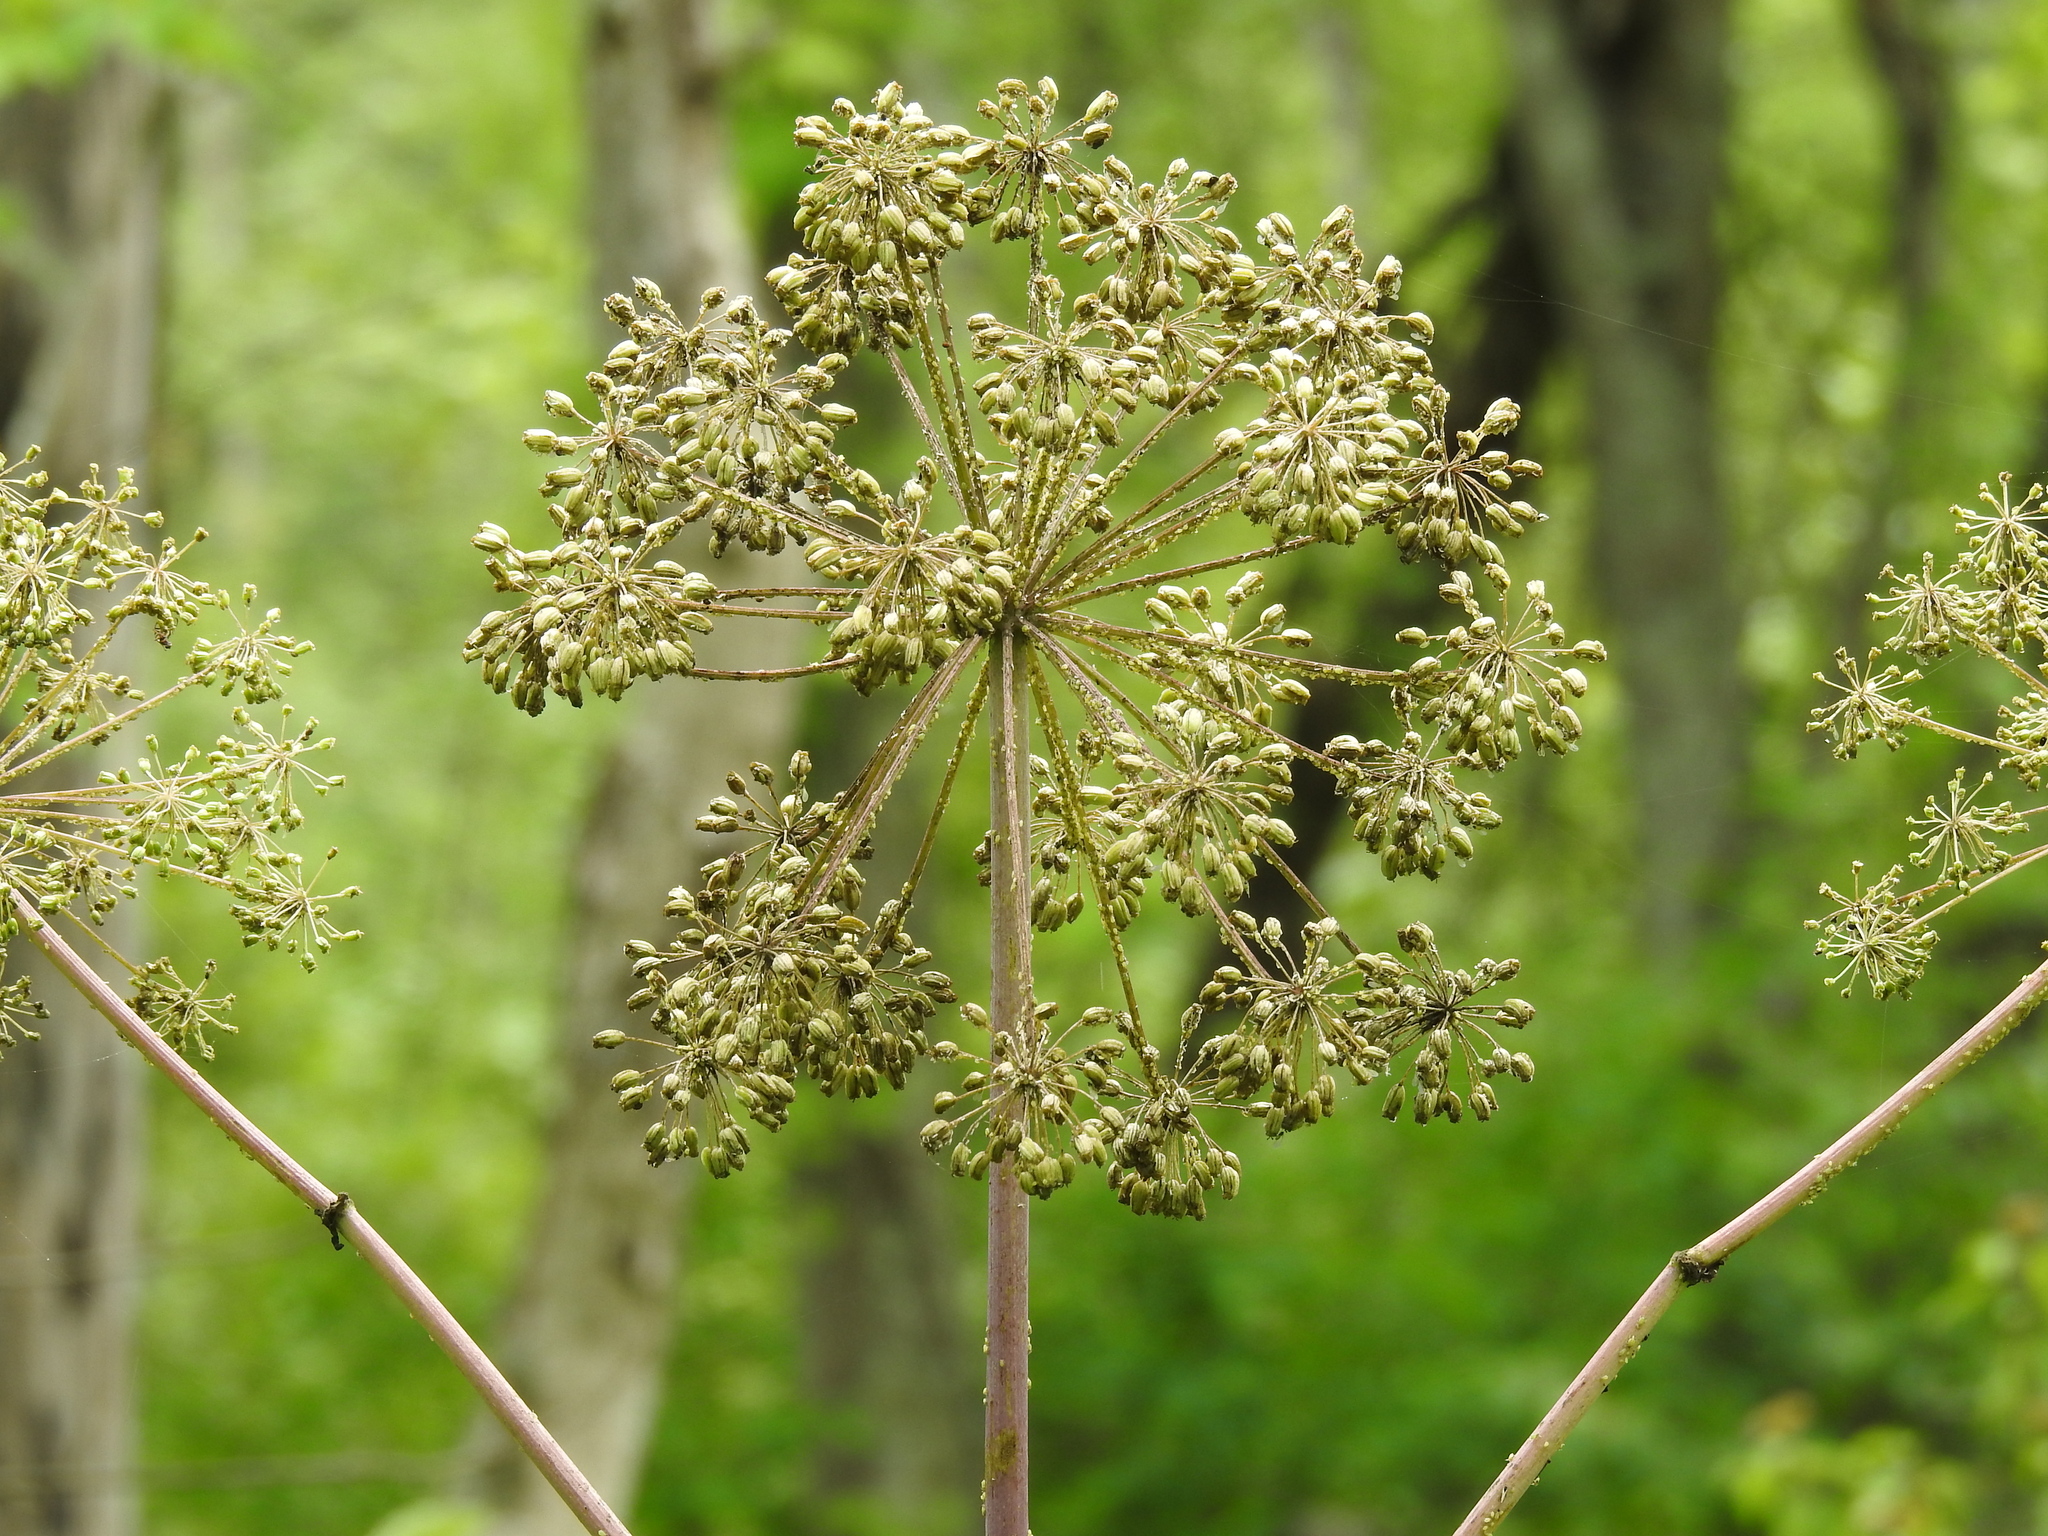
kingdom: Plantae
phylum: Tracheophyta
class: Magnoliopsida
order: Apiales
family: Apiaceae
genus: Angelica
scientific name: Angelica atropurpurea
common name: Great angelica
